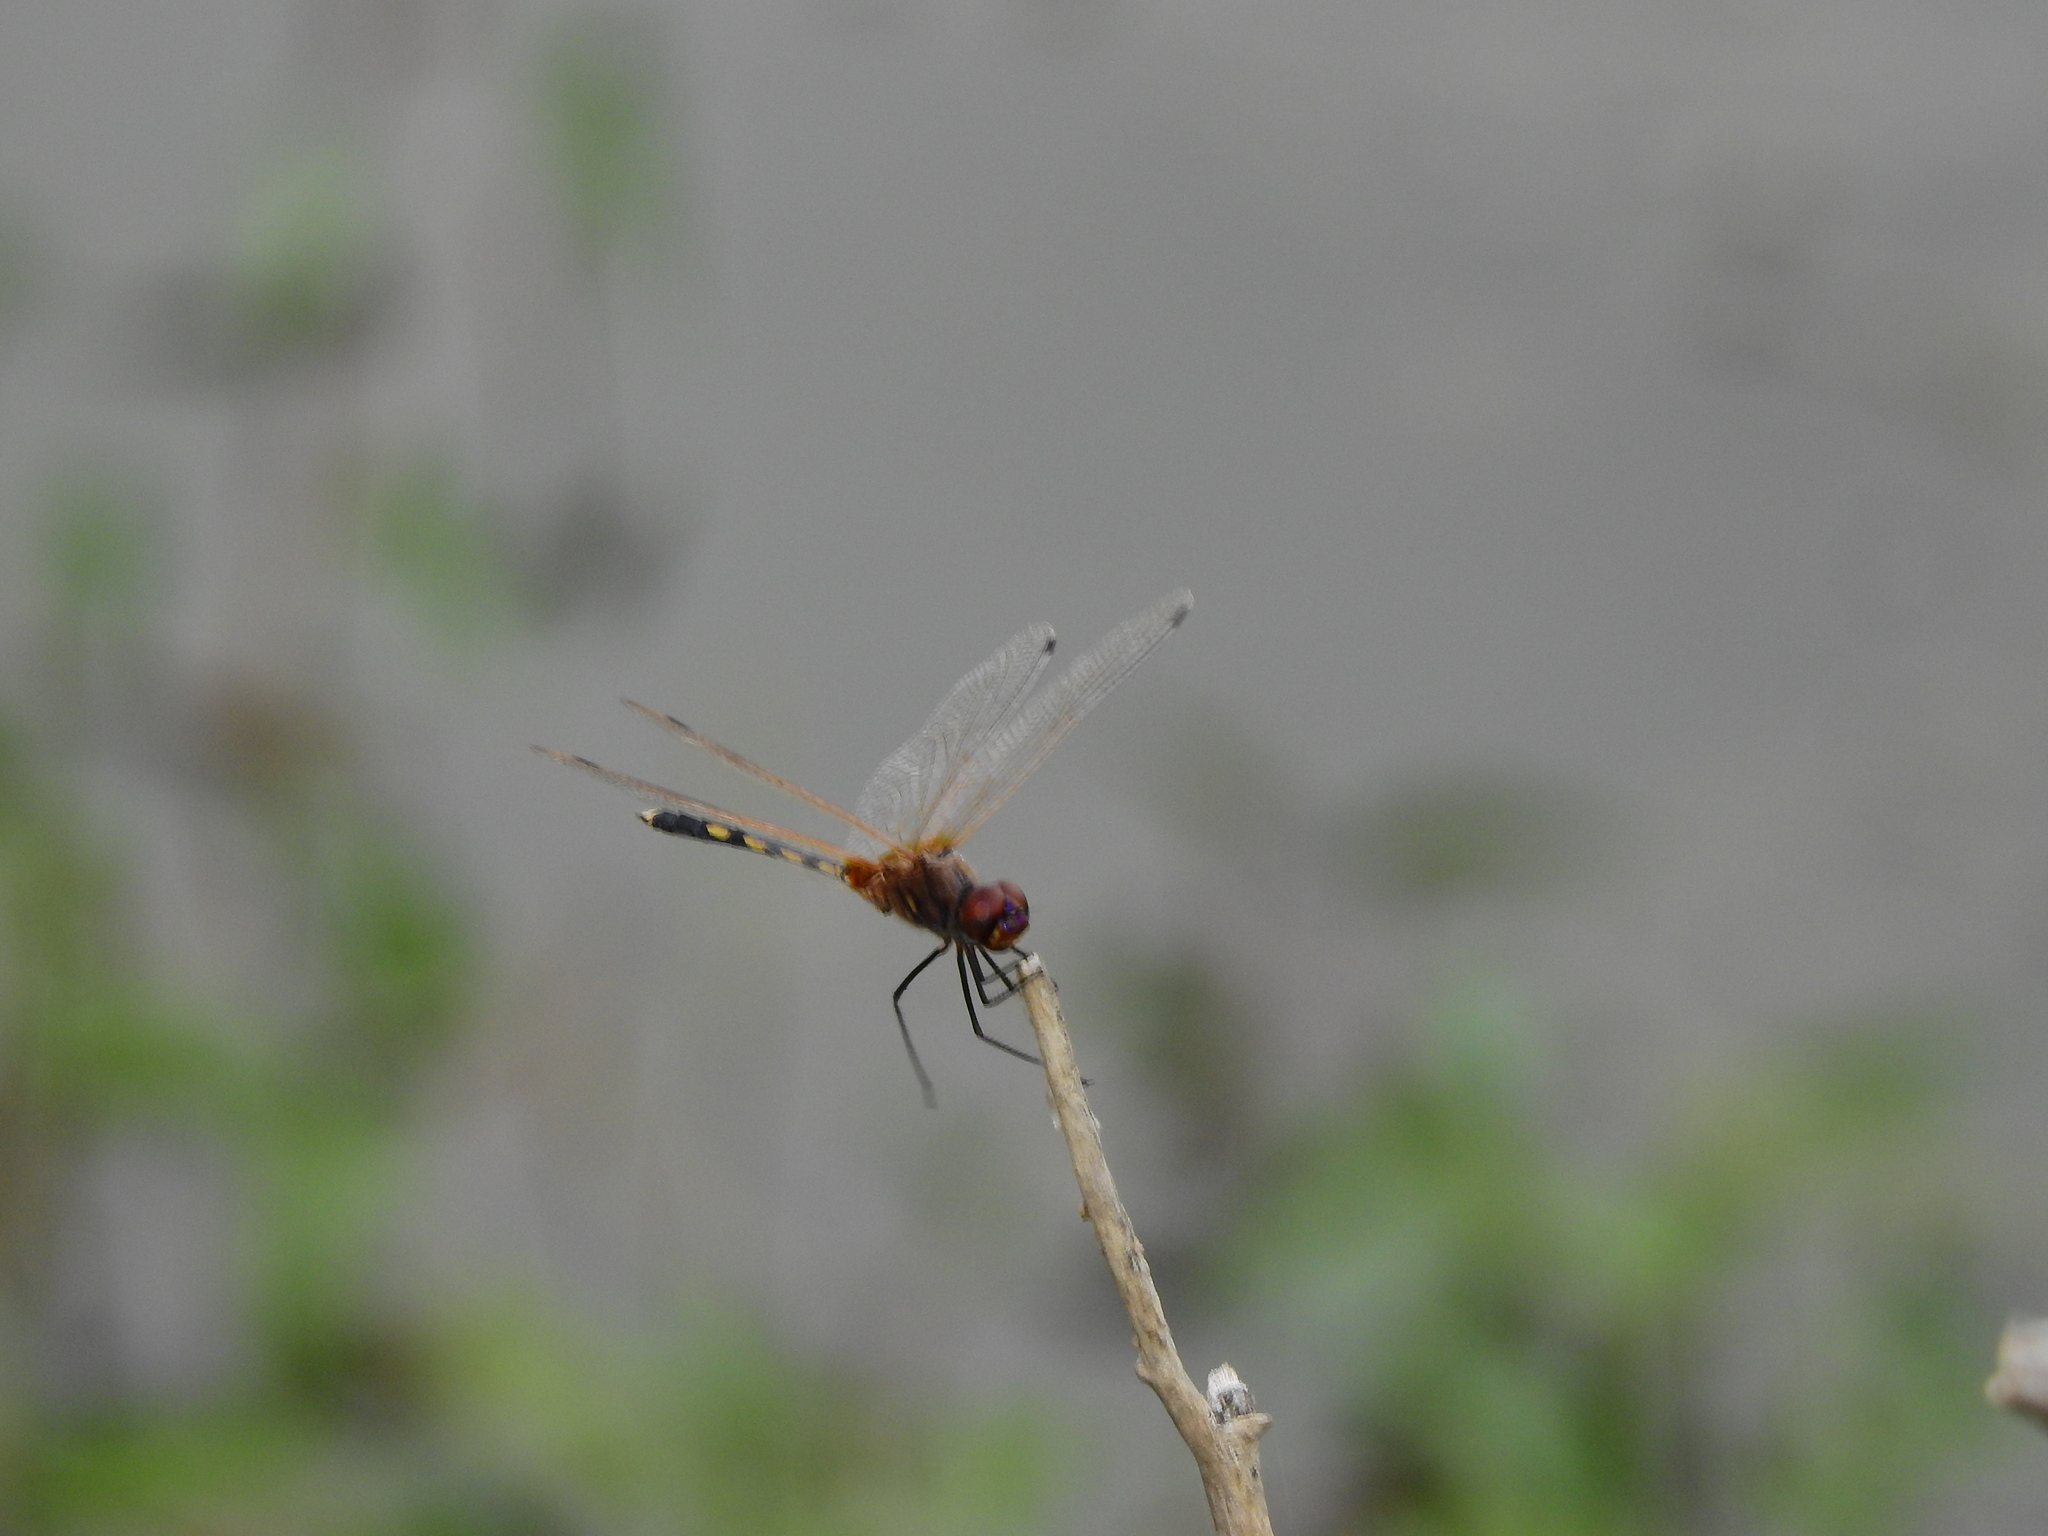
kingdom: Animalia
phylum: Arthropoda
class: Insecta
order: Odonata
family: Libellulidae
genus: Trithemis
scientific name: Trithemis pallidinervis
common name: Dancing dropwing
